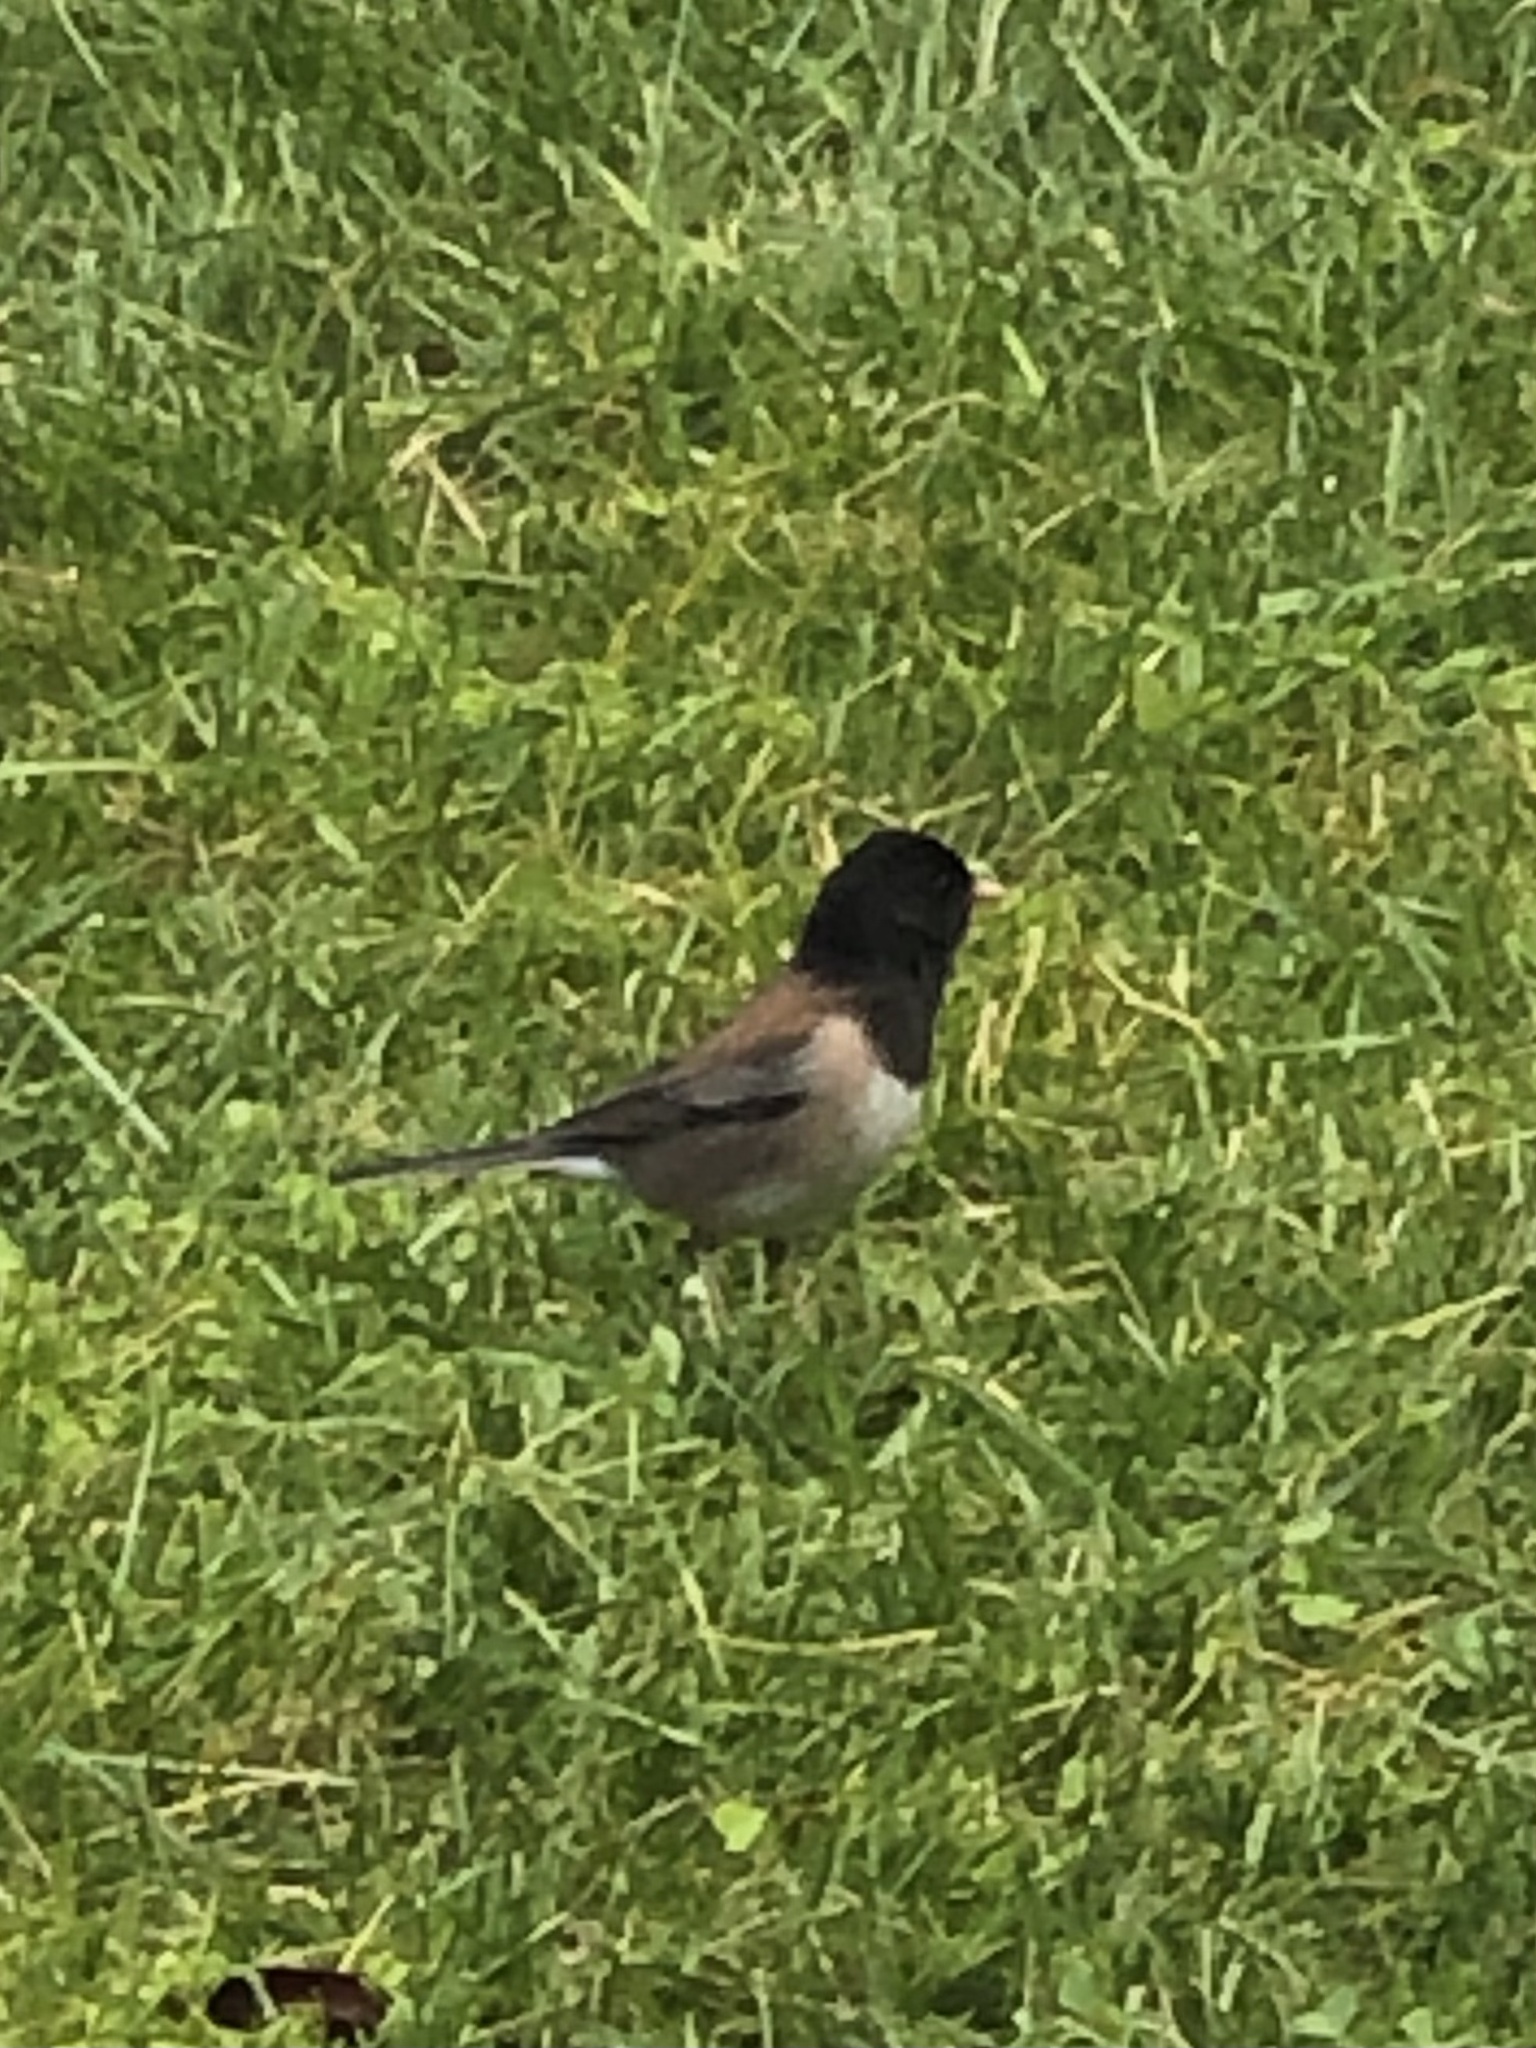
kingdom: Animalia
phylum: Chordata
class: Aves
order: Passeriformes
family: Passerellidae
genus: Junco
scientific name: Junco hyemalis
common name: Dark-eyed junco
